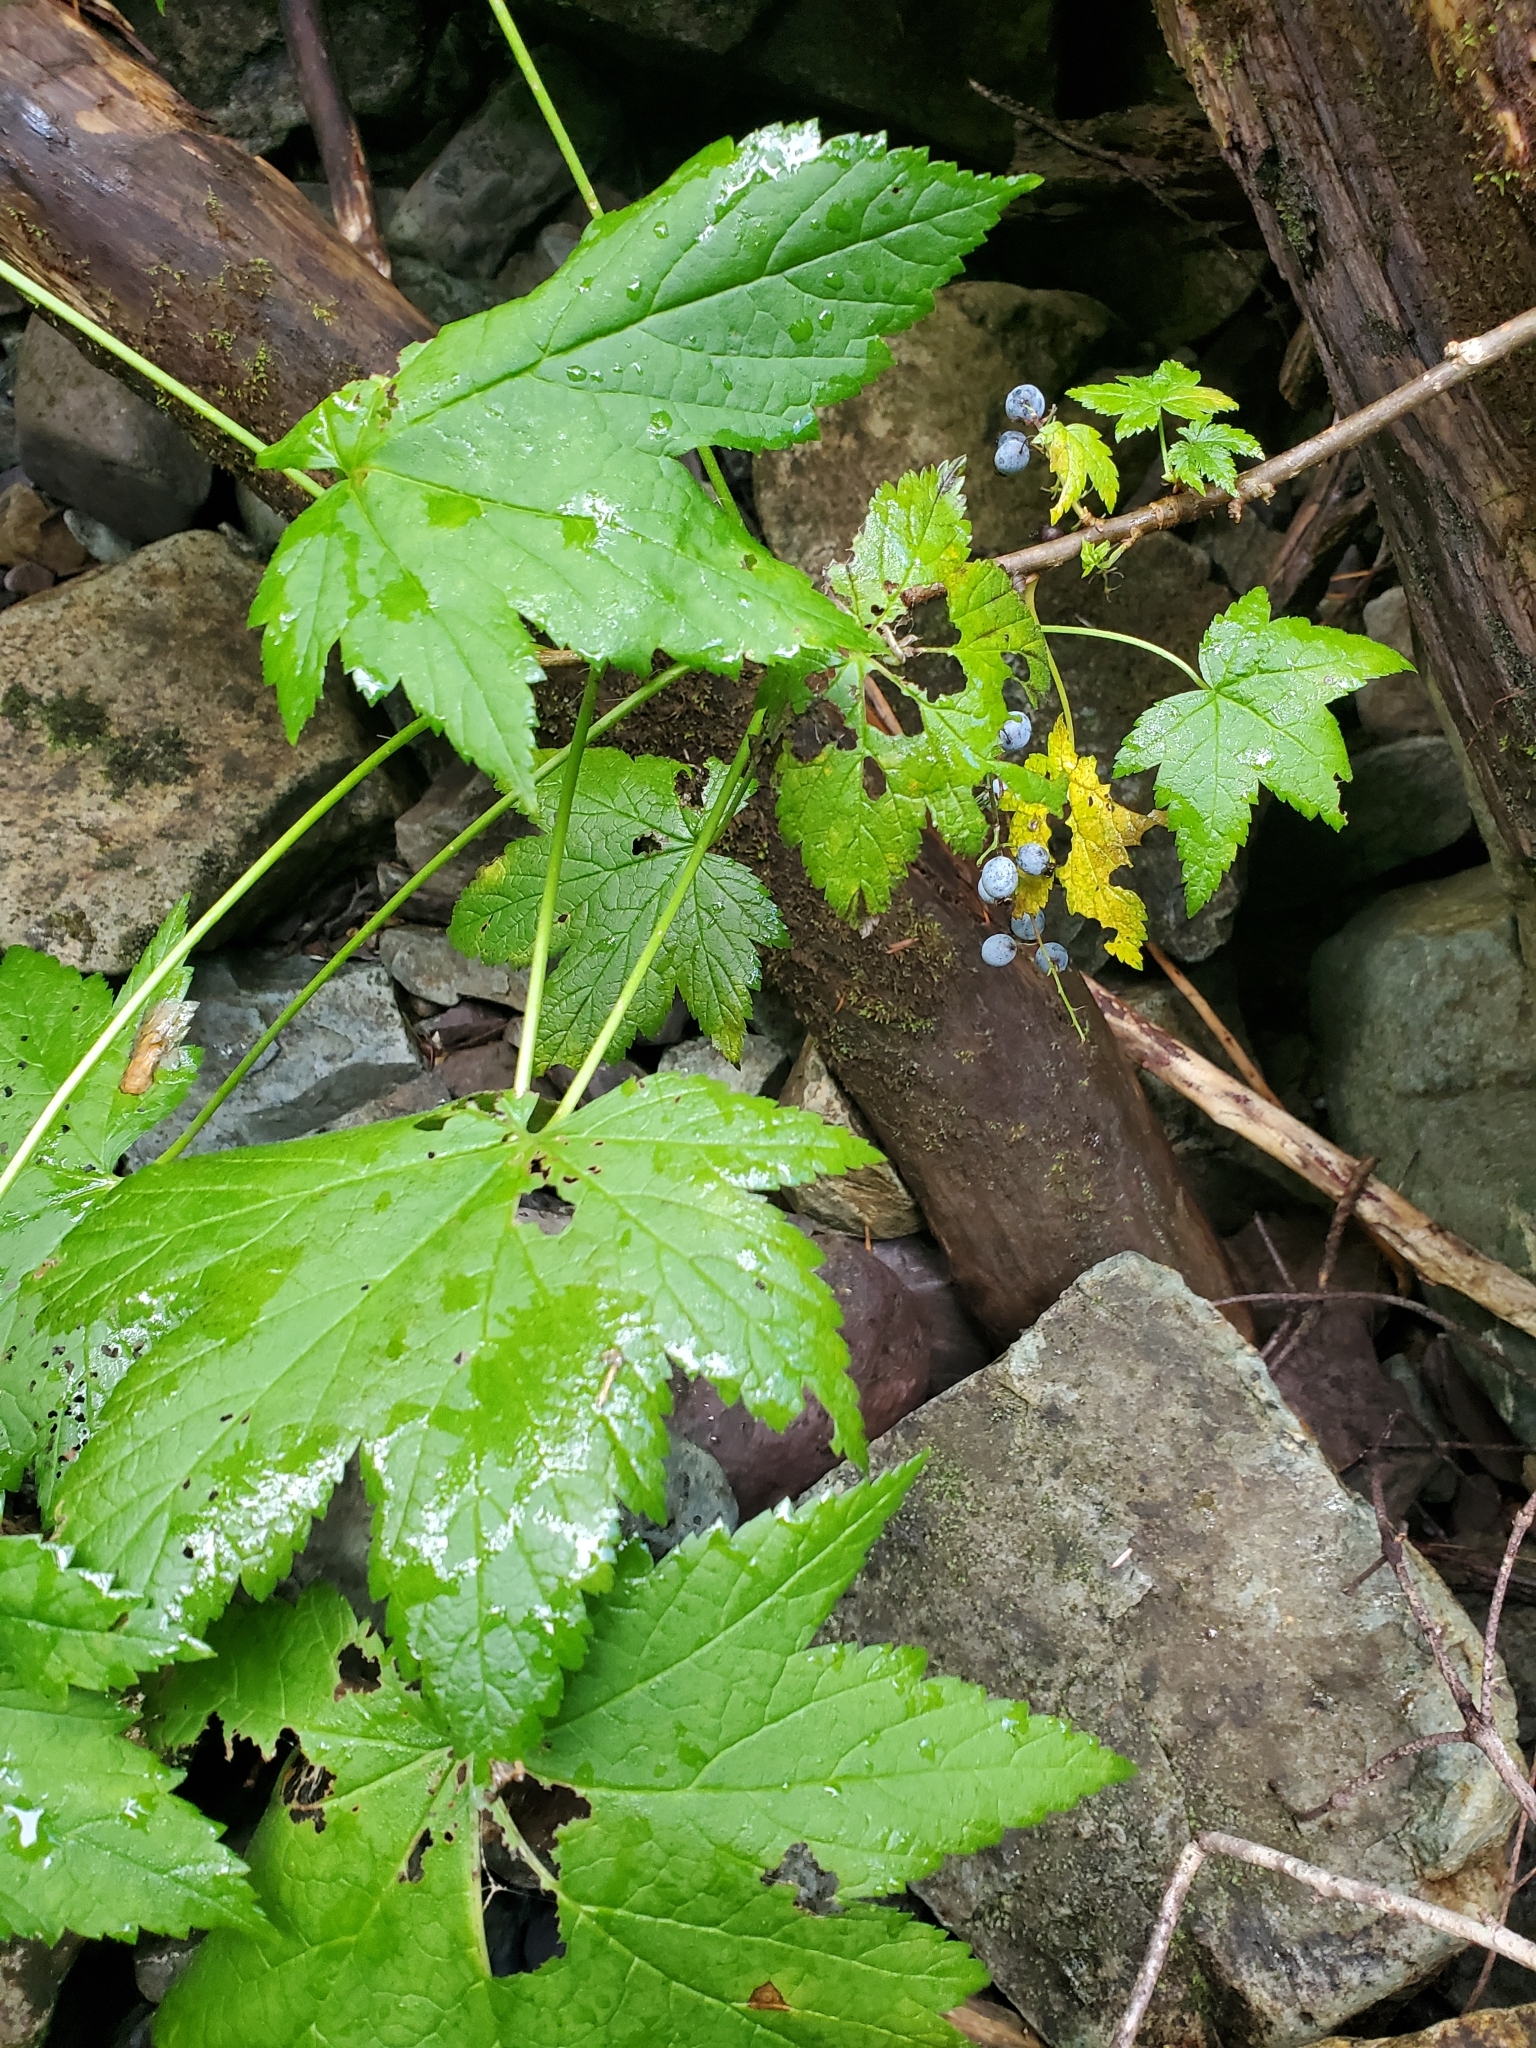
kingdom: Plantae
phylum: Tracheophyta
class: Magnoliopsida
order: Saxifragales
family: Grossulariaceae
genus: Ribes
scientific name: Ribes bracteosum
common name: California black currant
